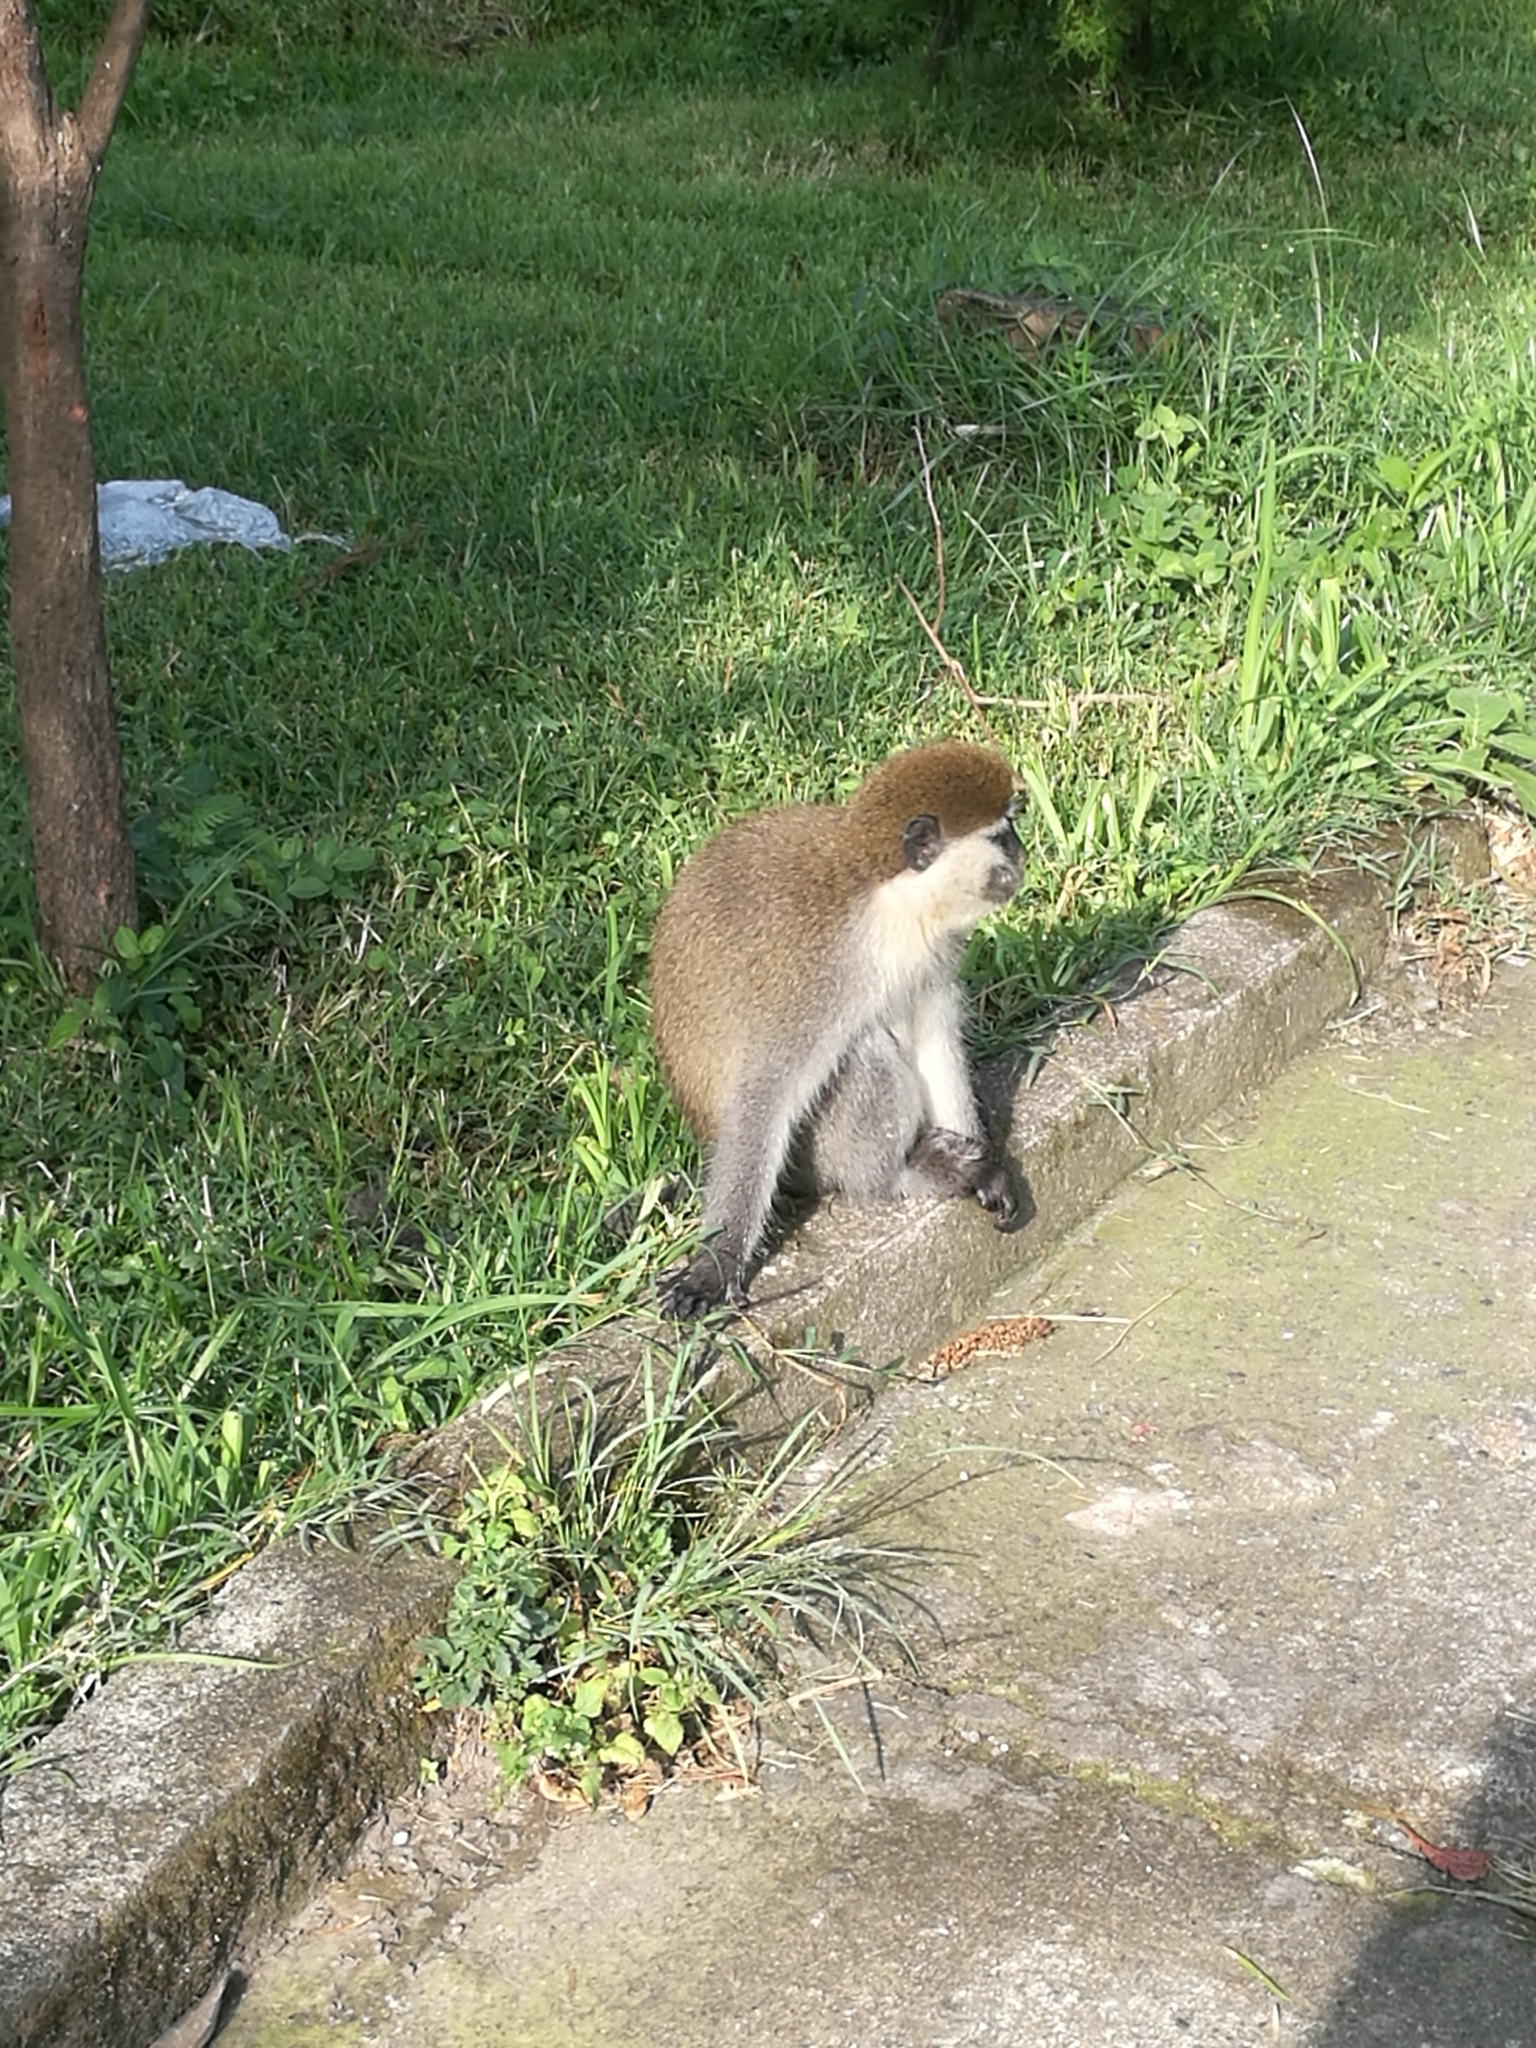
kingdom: Animalia
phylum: Chordata
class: Mammalia
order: Primates
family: Cercopithecidae
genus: Chlorocebus
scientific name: Chlorocebus aethiops
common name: Grivet
